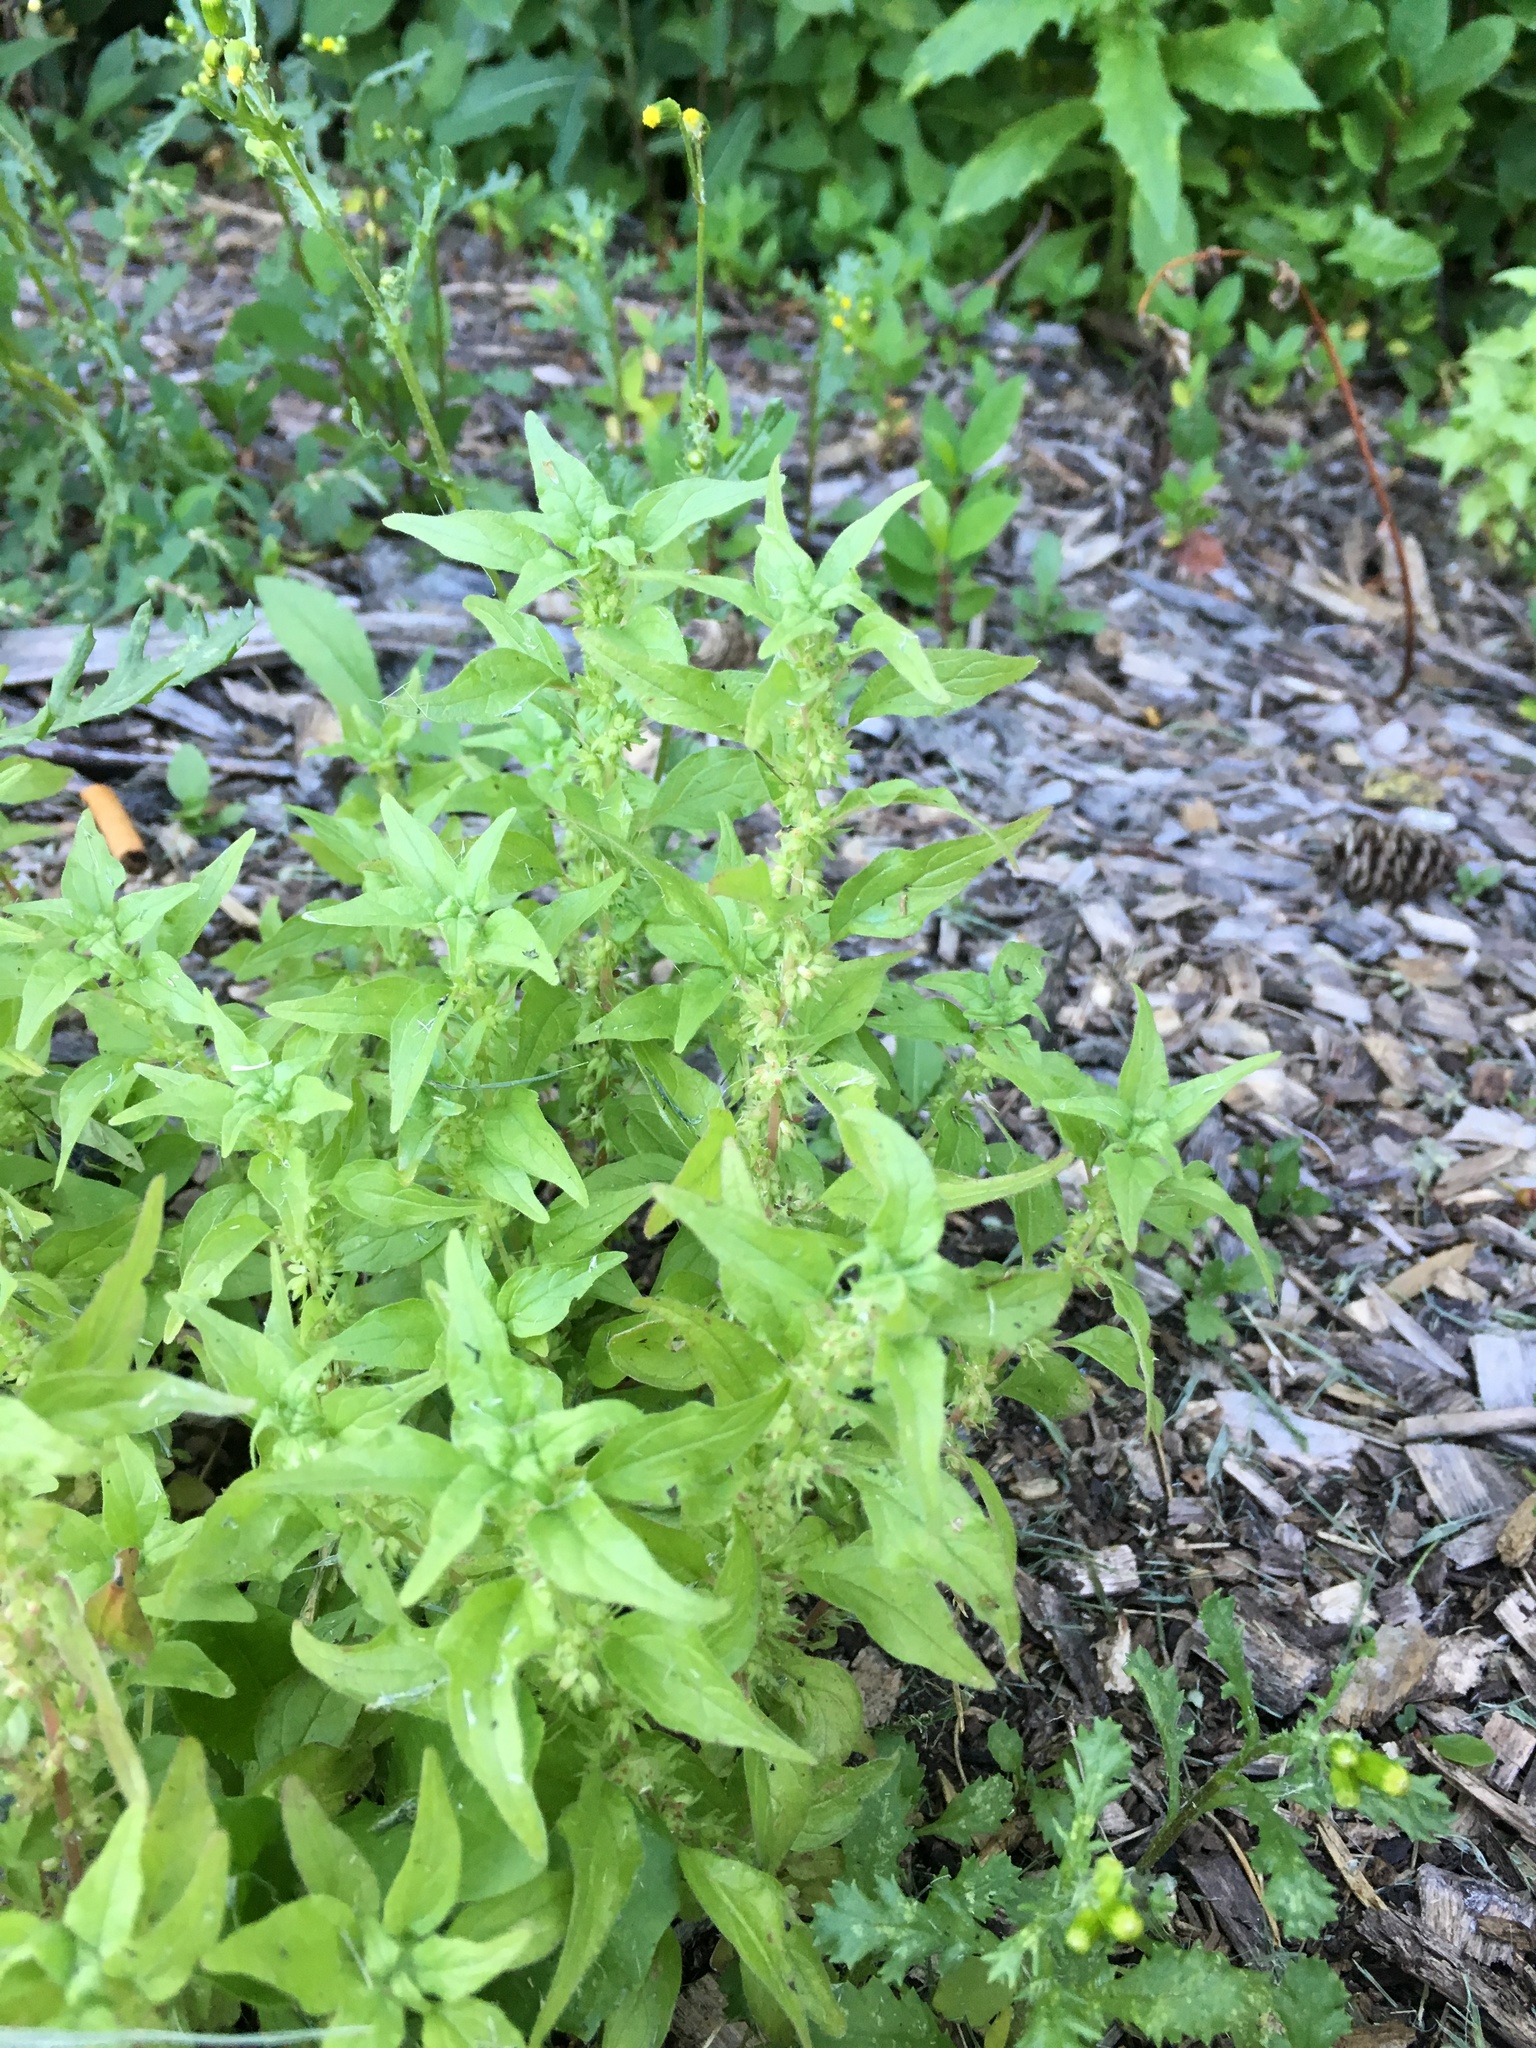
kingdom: Plantae
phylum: Tracheophyta
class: Magnoliopsida
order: Rosales
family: Urticaceae
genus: Parietaria
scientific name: Parietaria pensylvanica
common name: Pennsylvania pellitory
